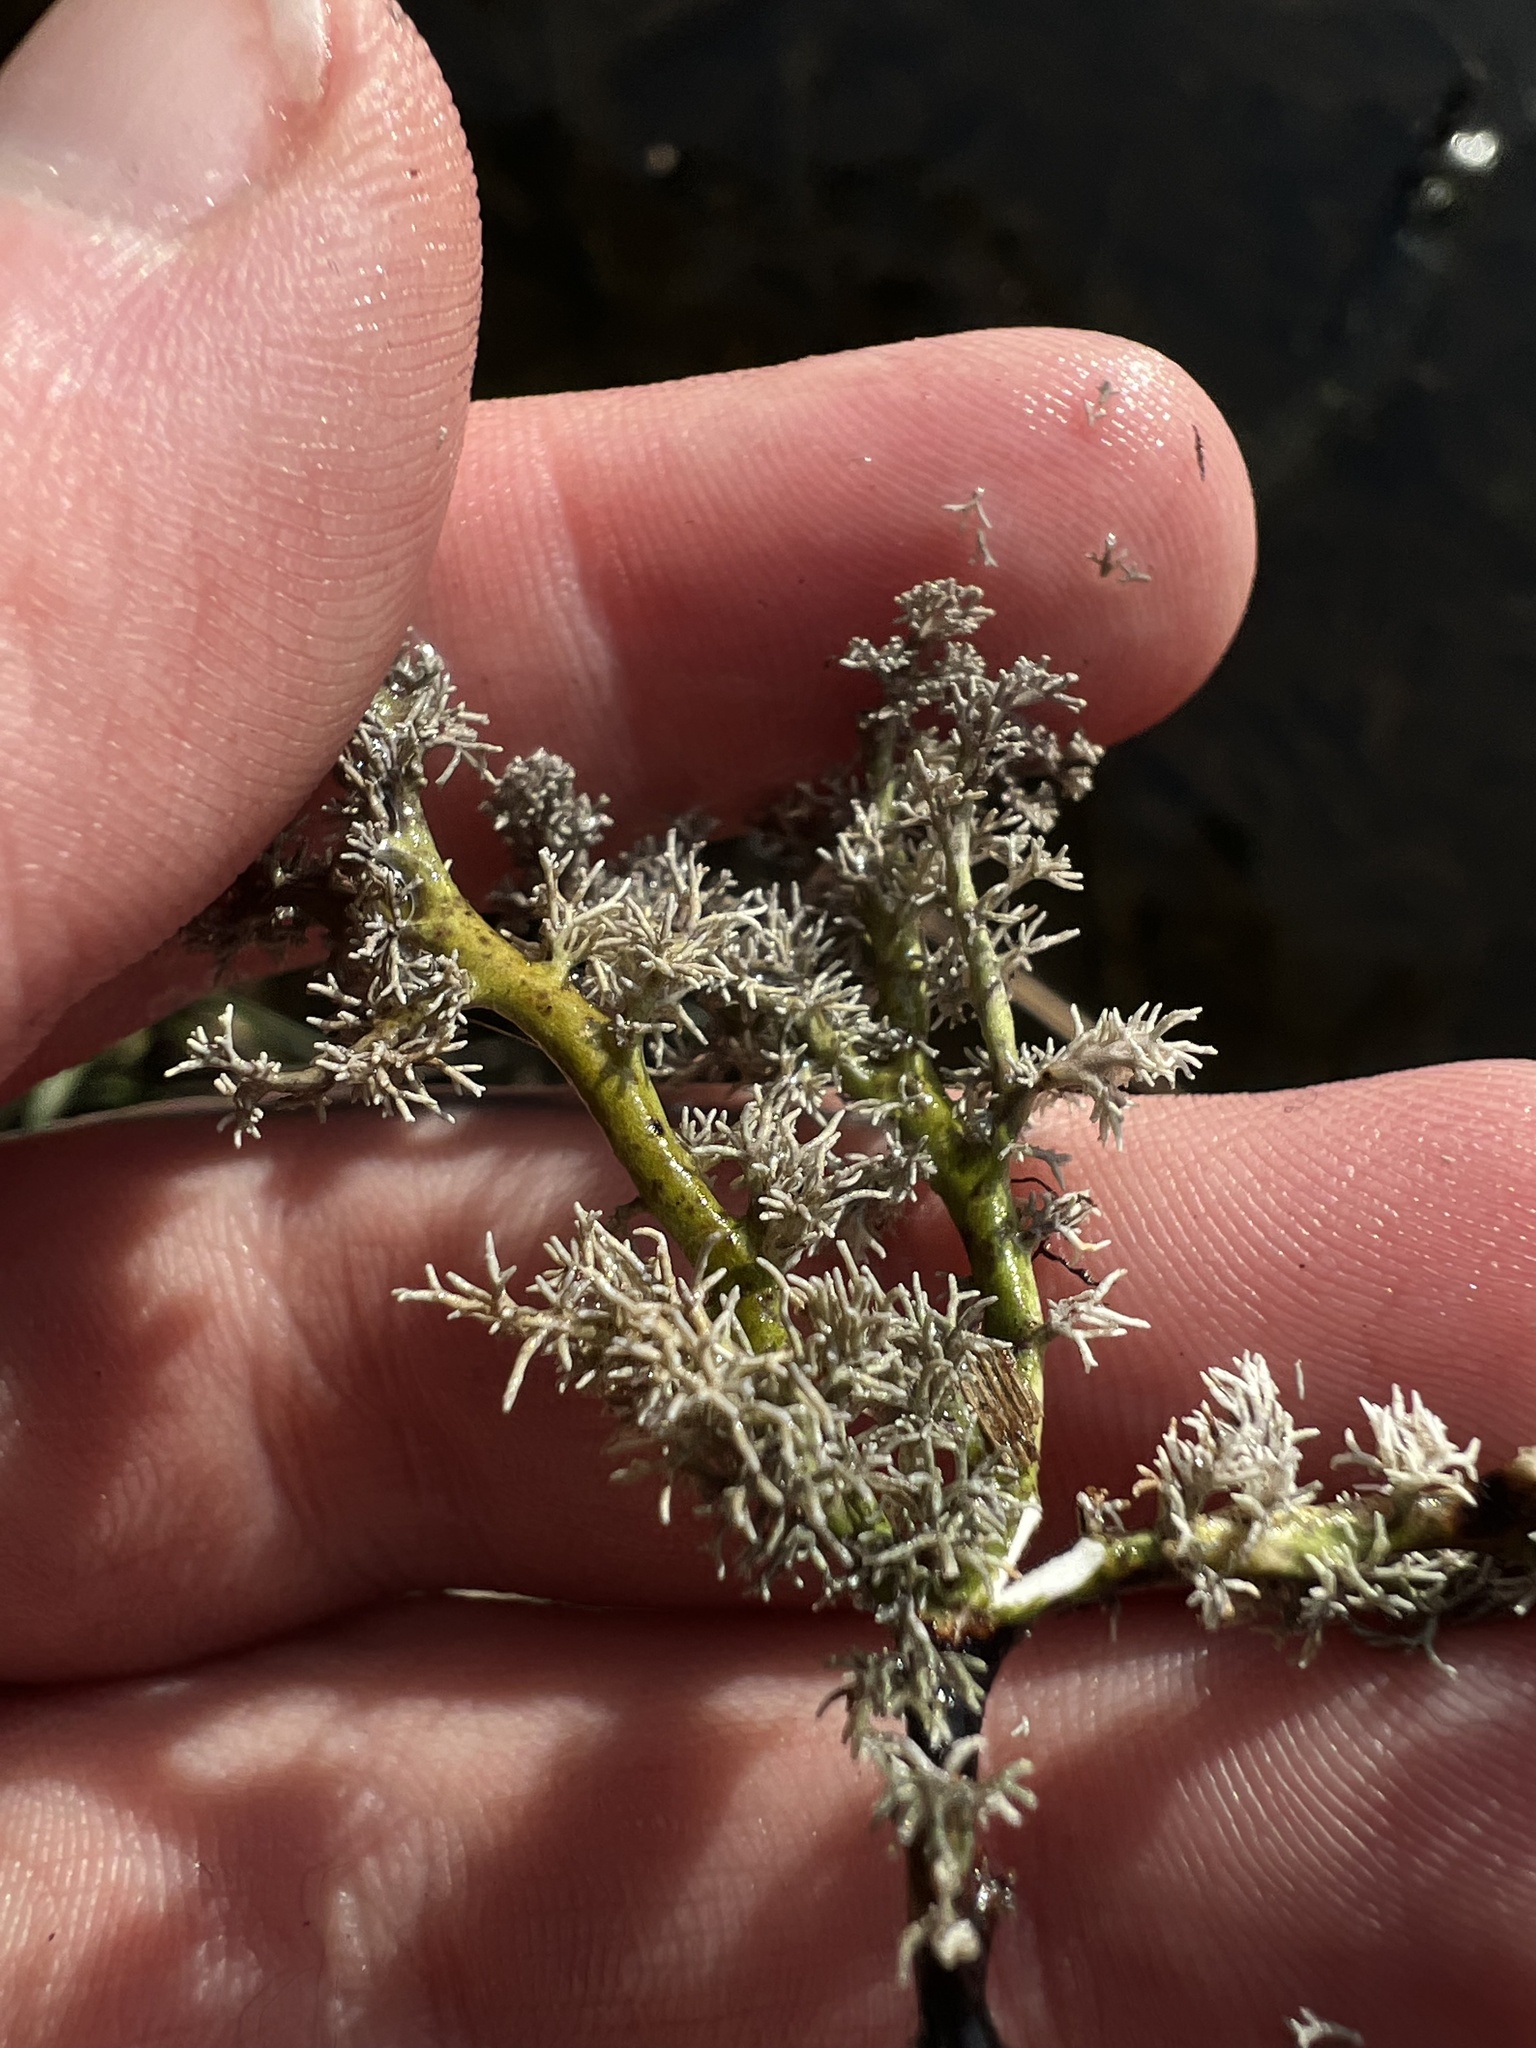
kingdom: Fungi
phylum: Ascomycota
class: Lecanoromycetes
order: Lecanorales
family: Sphaerophoraceae
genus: Sphaerophorus
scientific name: Sphaerophorus globosus
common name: Globe ball lichen
